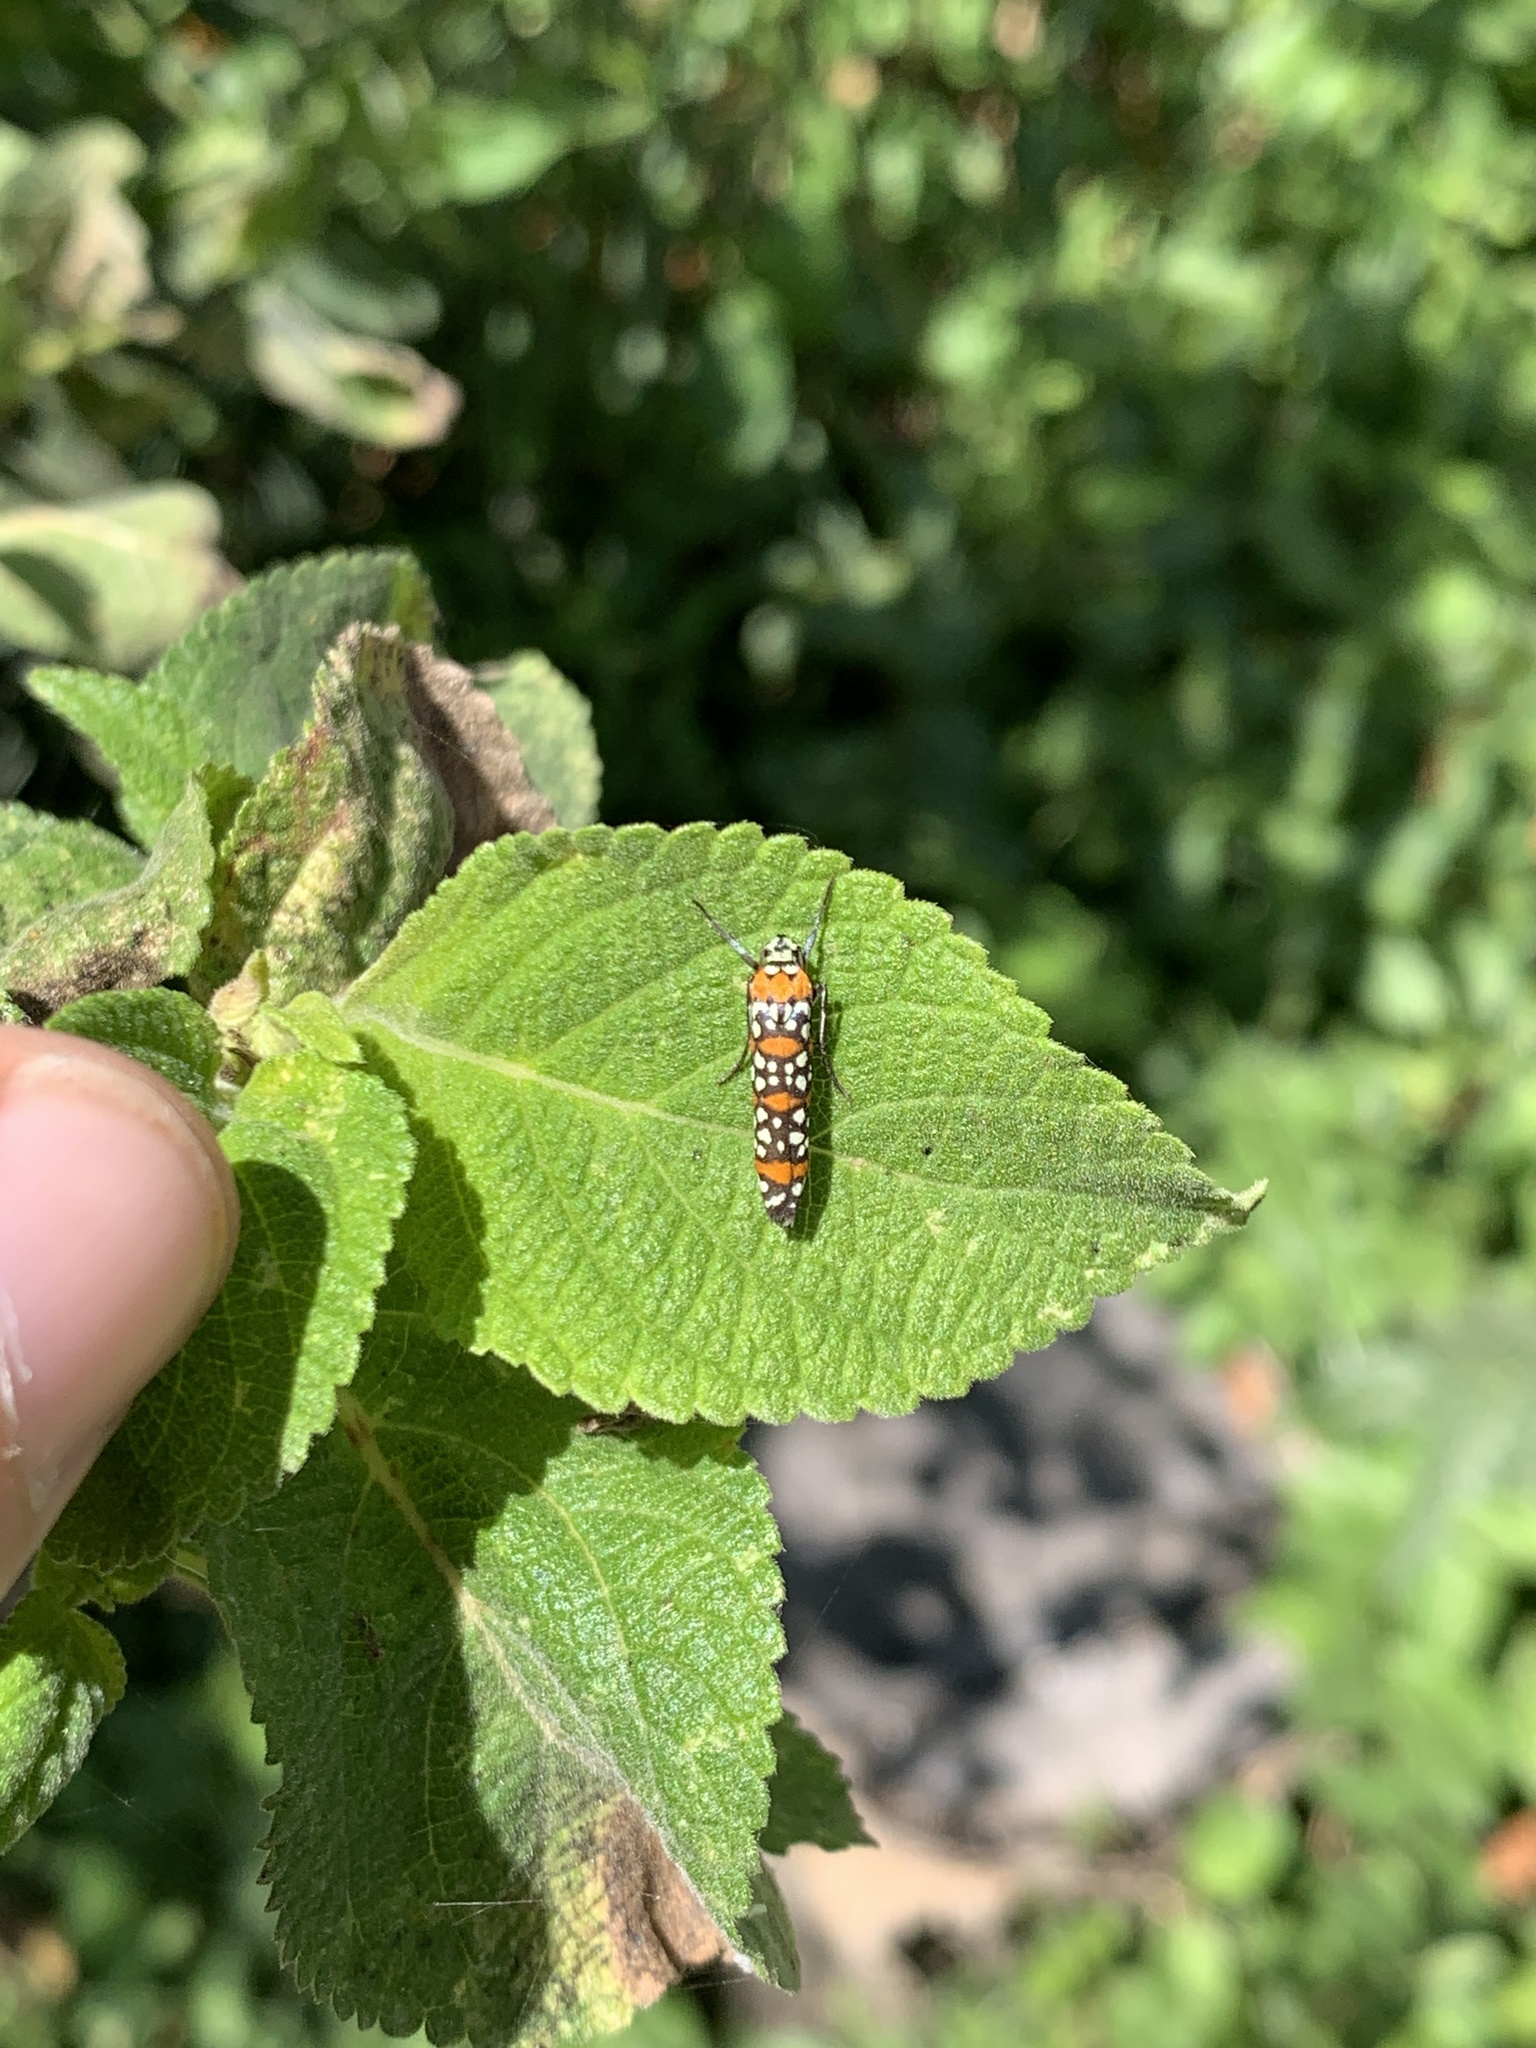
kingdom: Animalia
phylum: Arthropoda
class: Insecta
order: Lepidoptera
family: Attevidae
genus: Atteva
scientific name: Atteva punctella
